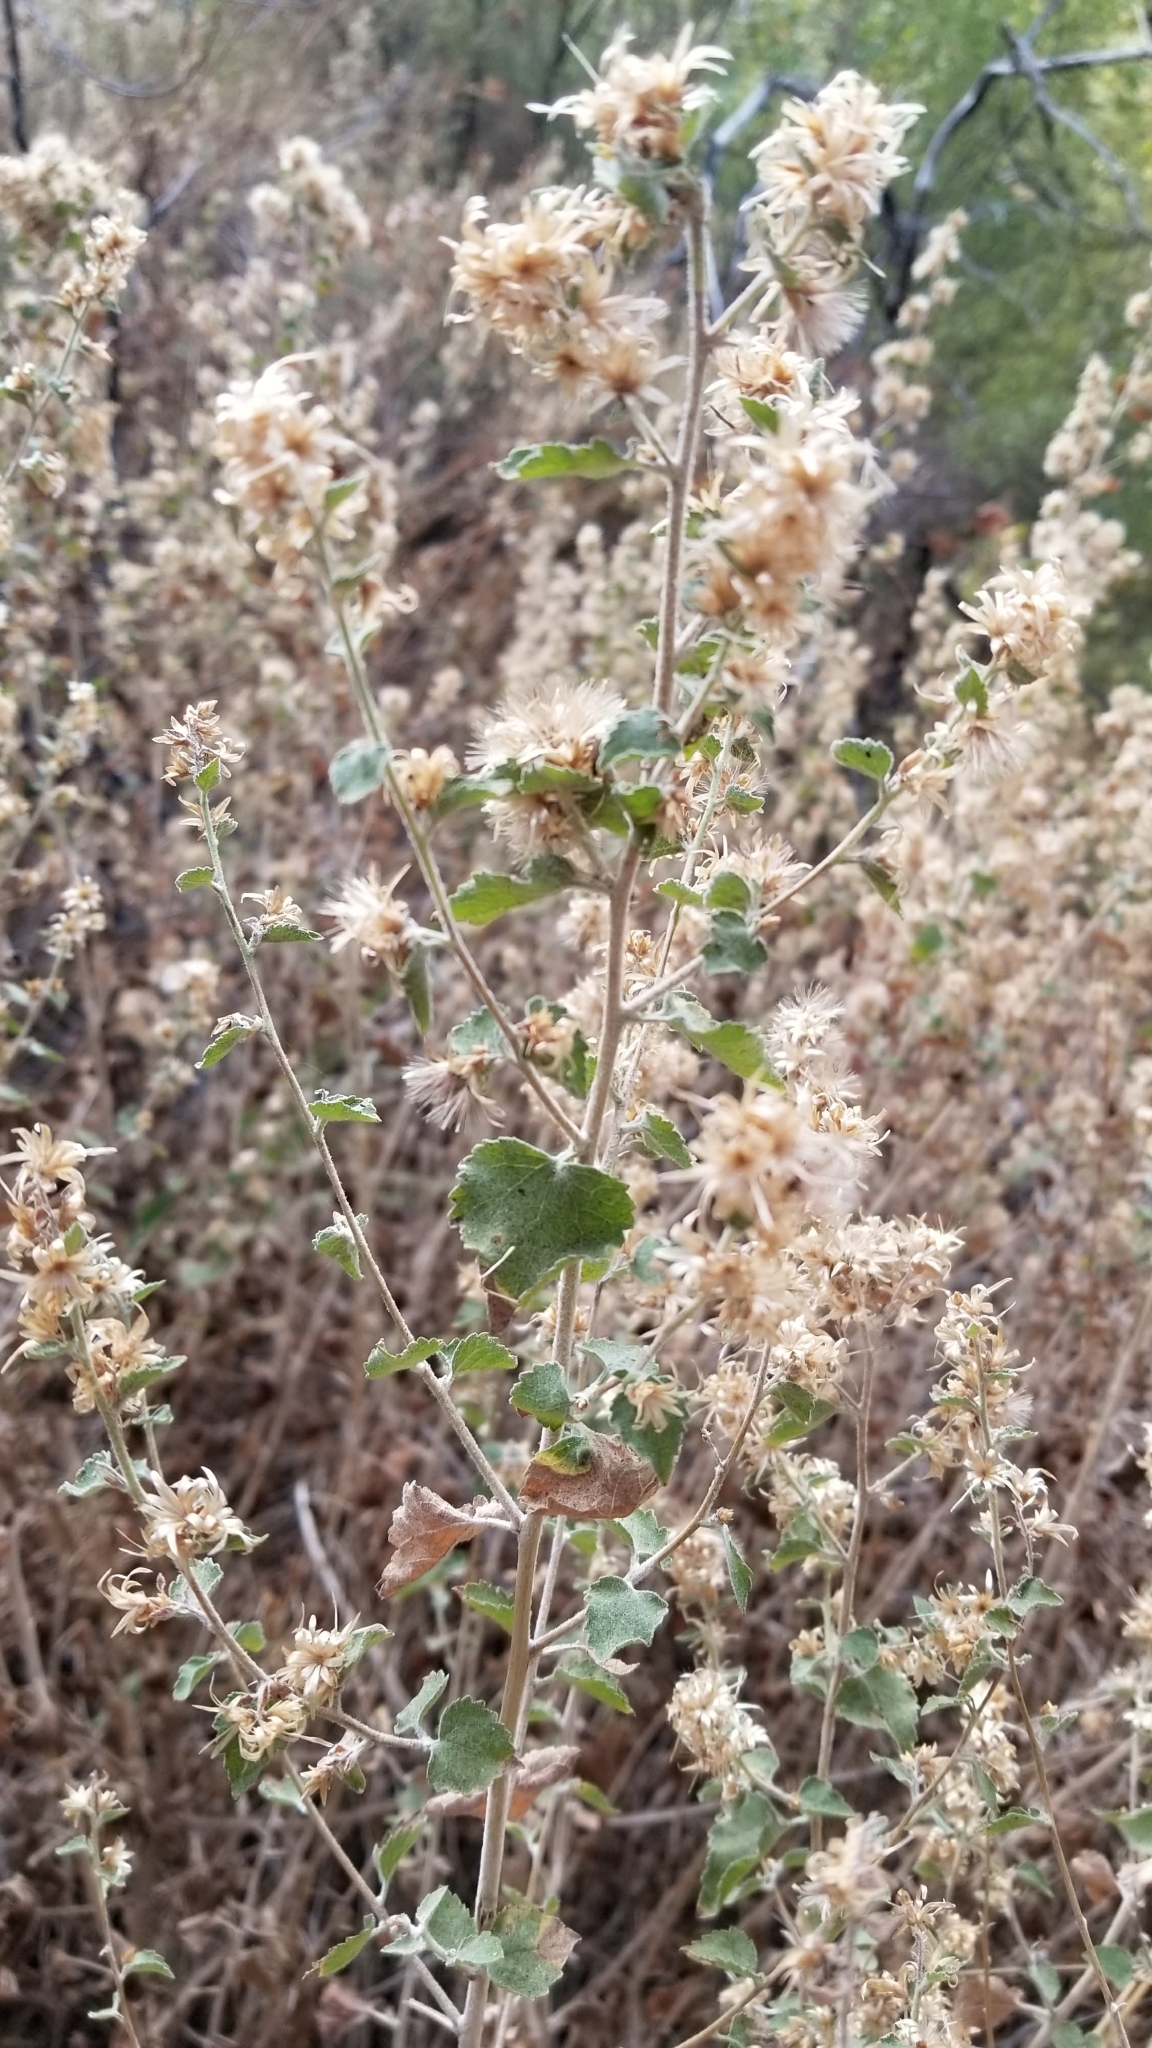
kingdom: Plantae
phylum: Tracheophyta
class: Magnoliopsida
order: Asterales
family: Asteraceae
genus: Brickellia
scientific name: Brickellia californica
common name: California brickellbush
